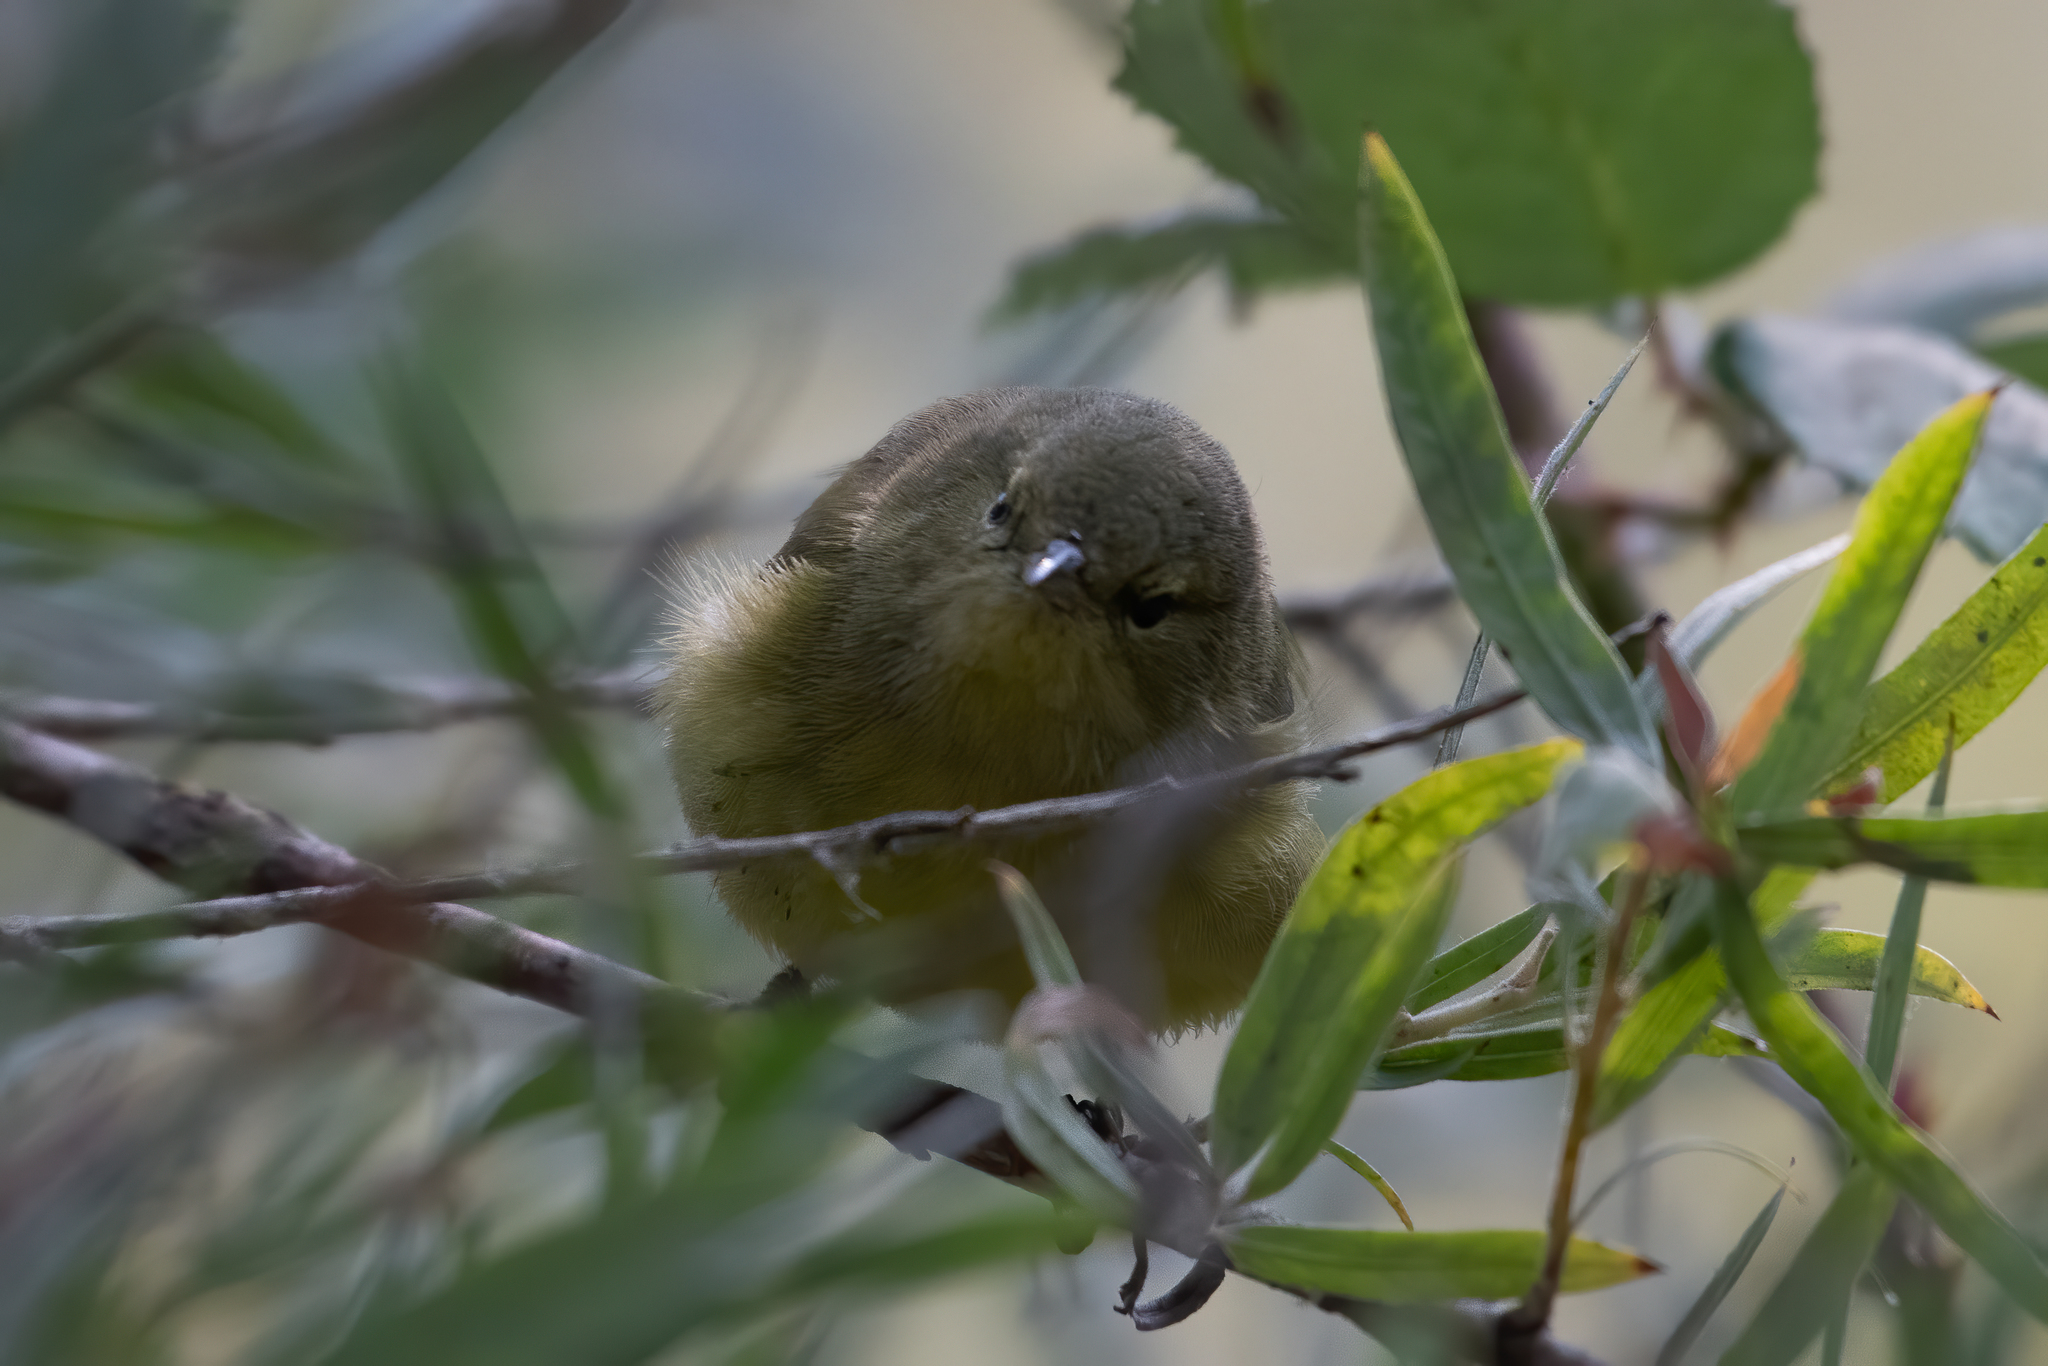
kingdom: Animalia
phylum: Chordata
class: Aves
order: Passeriformes
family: Parulidae
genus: Leiothlypis
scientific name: Leiothlypis celata
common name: Orange-crowned warbler
